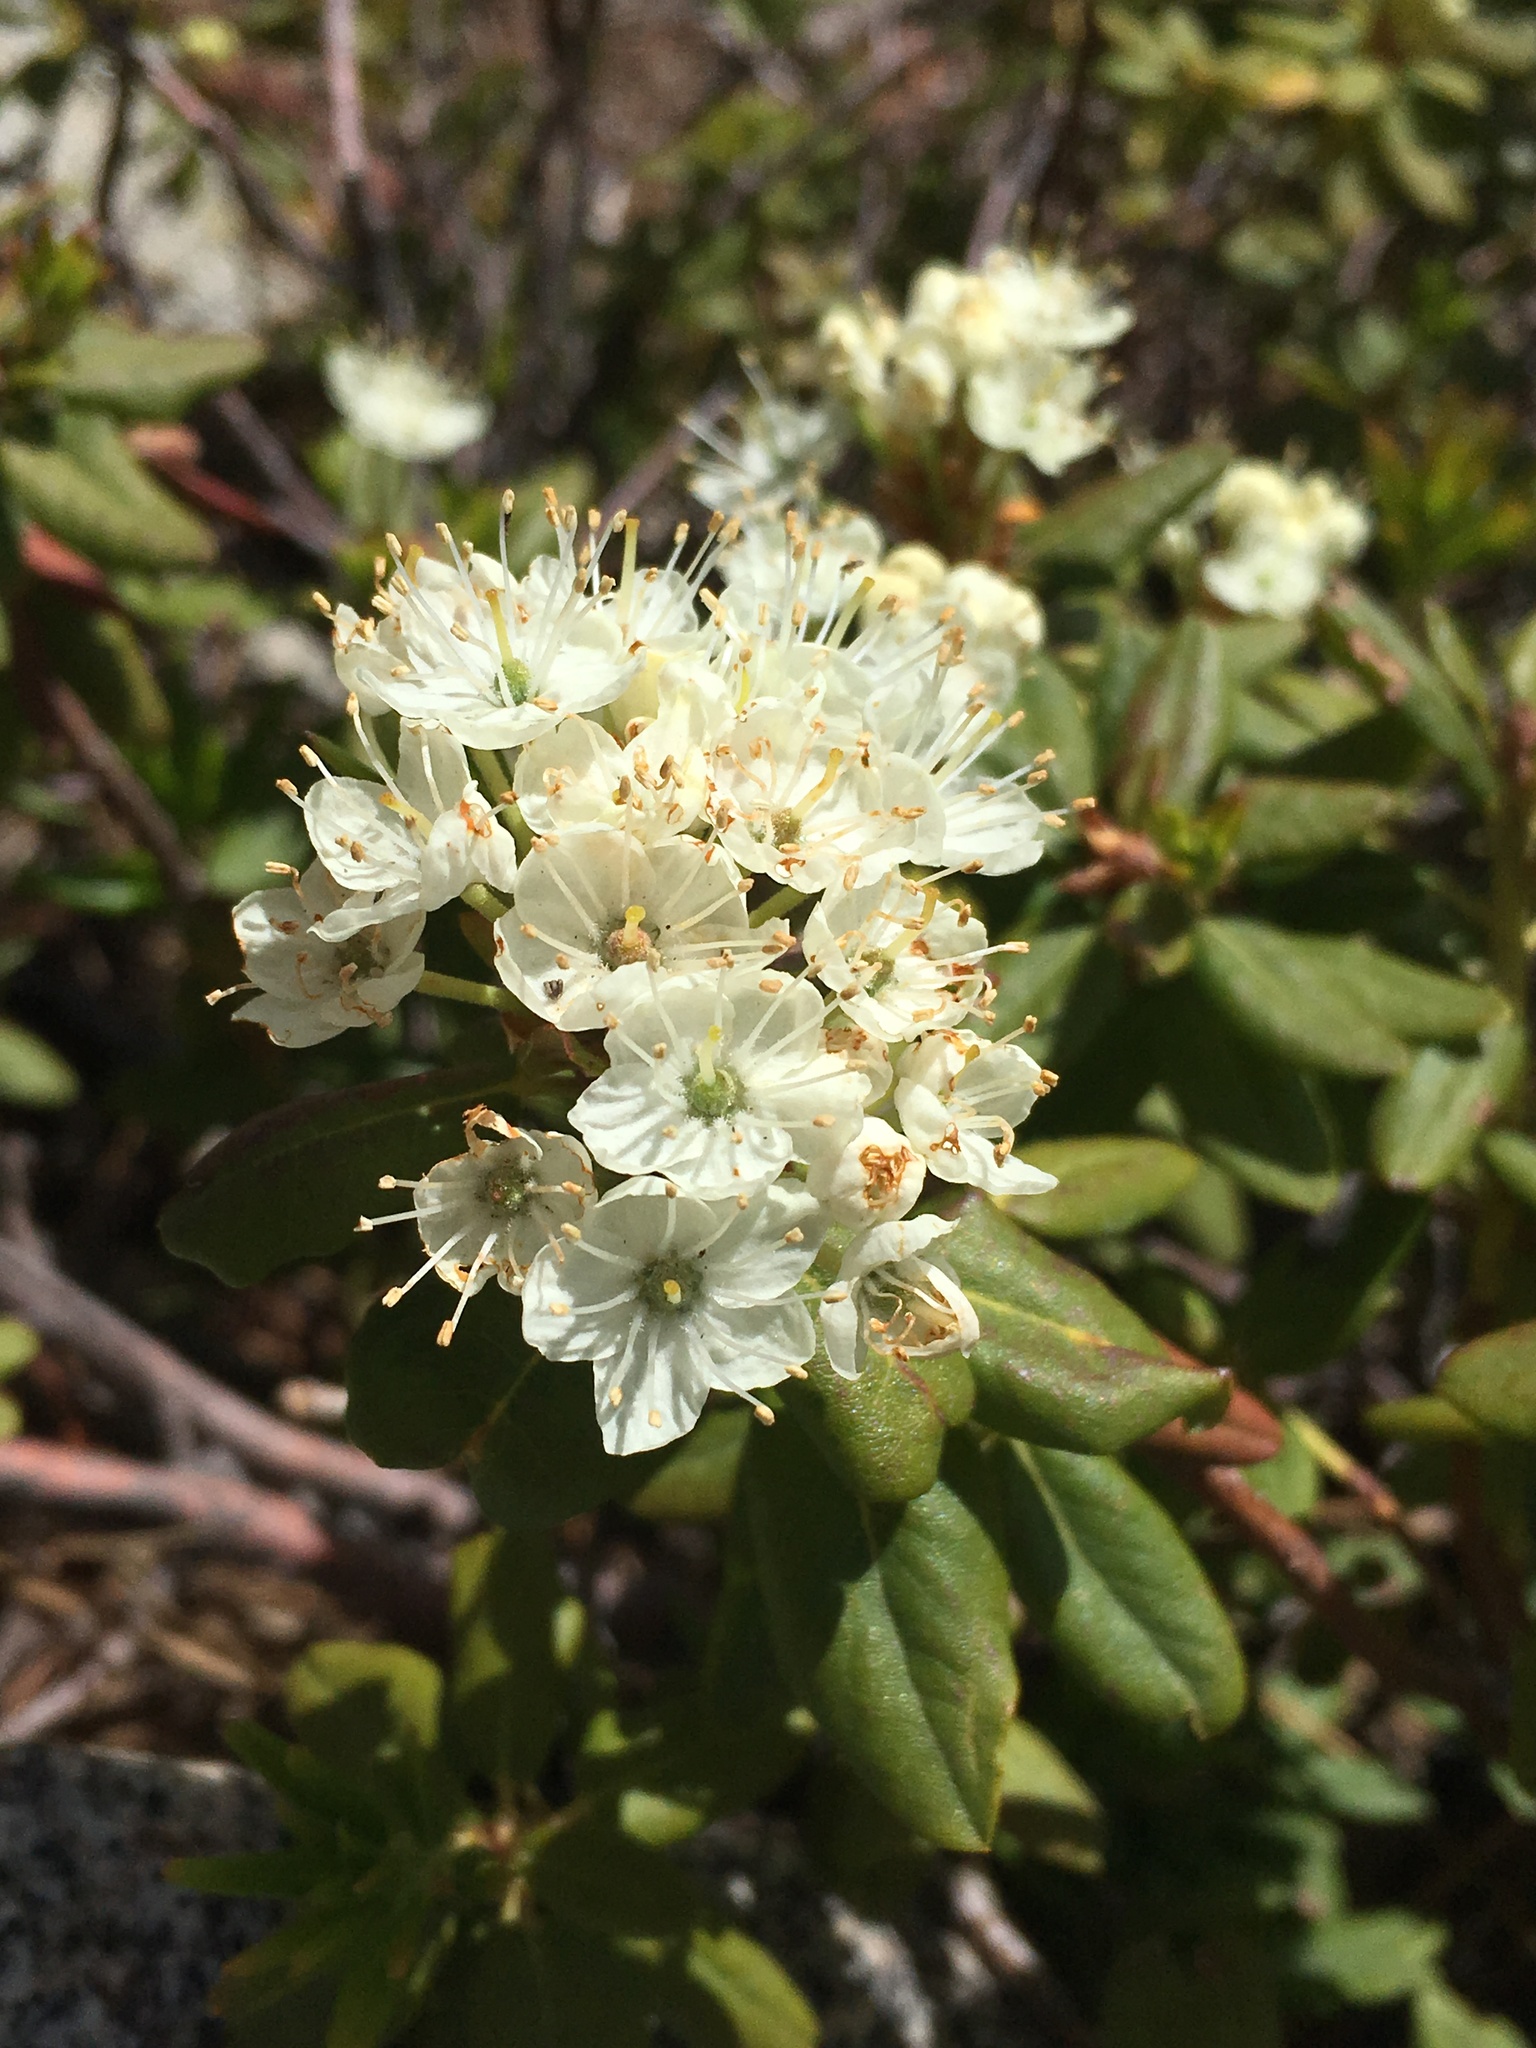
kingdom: Plantae
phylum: Tracheophyta
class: Magnoliopsida
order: Ericales
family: Ericaceae
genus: Rhododendron
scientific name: Rhododendron columbianum
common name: Western labrador tea
